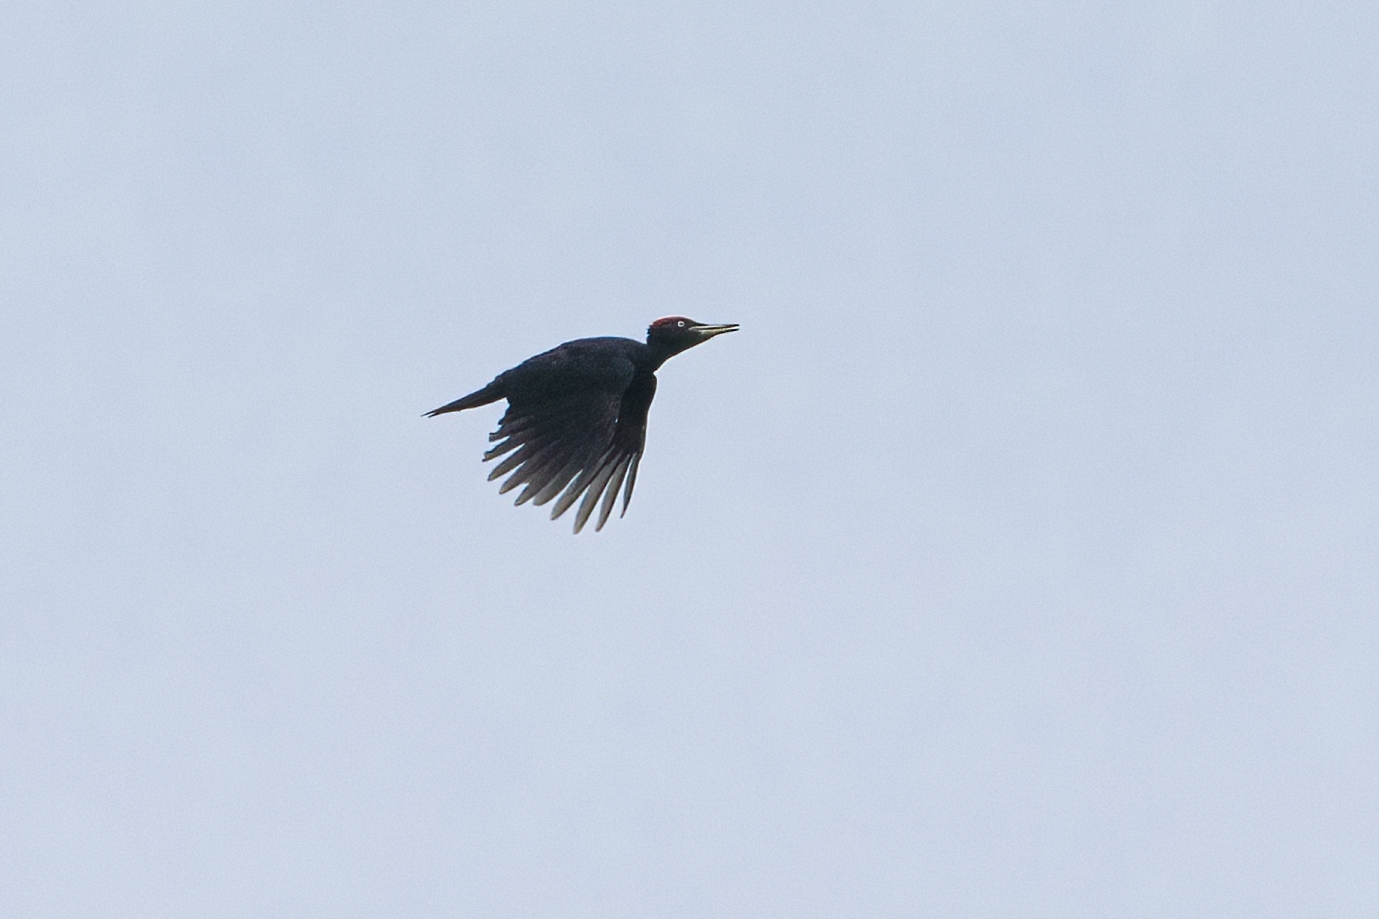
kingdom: Animalia
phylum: Chordata
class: Aves
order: Piciformes
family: Picidae
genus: Dryocopus
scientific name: Dryocopus martius
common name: Black woodpecker
